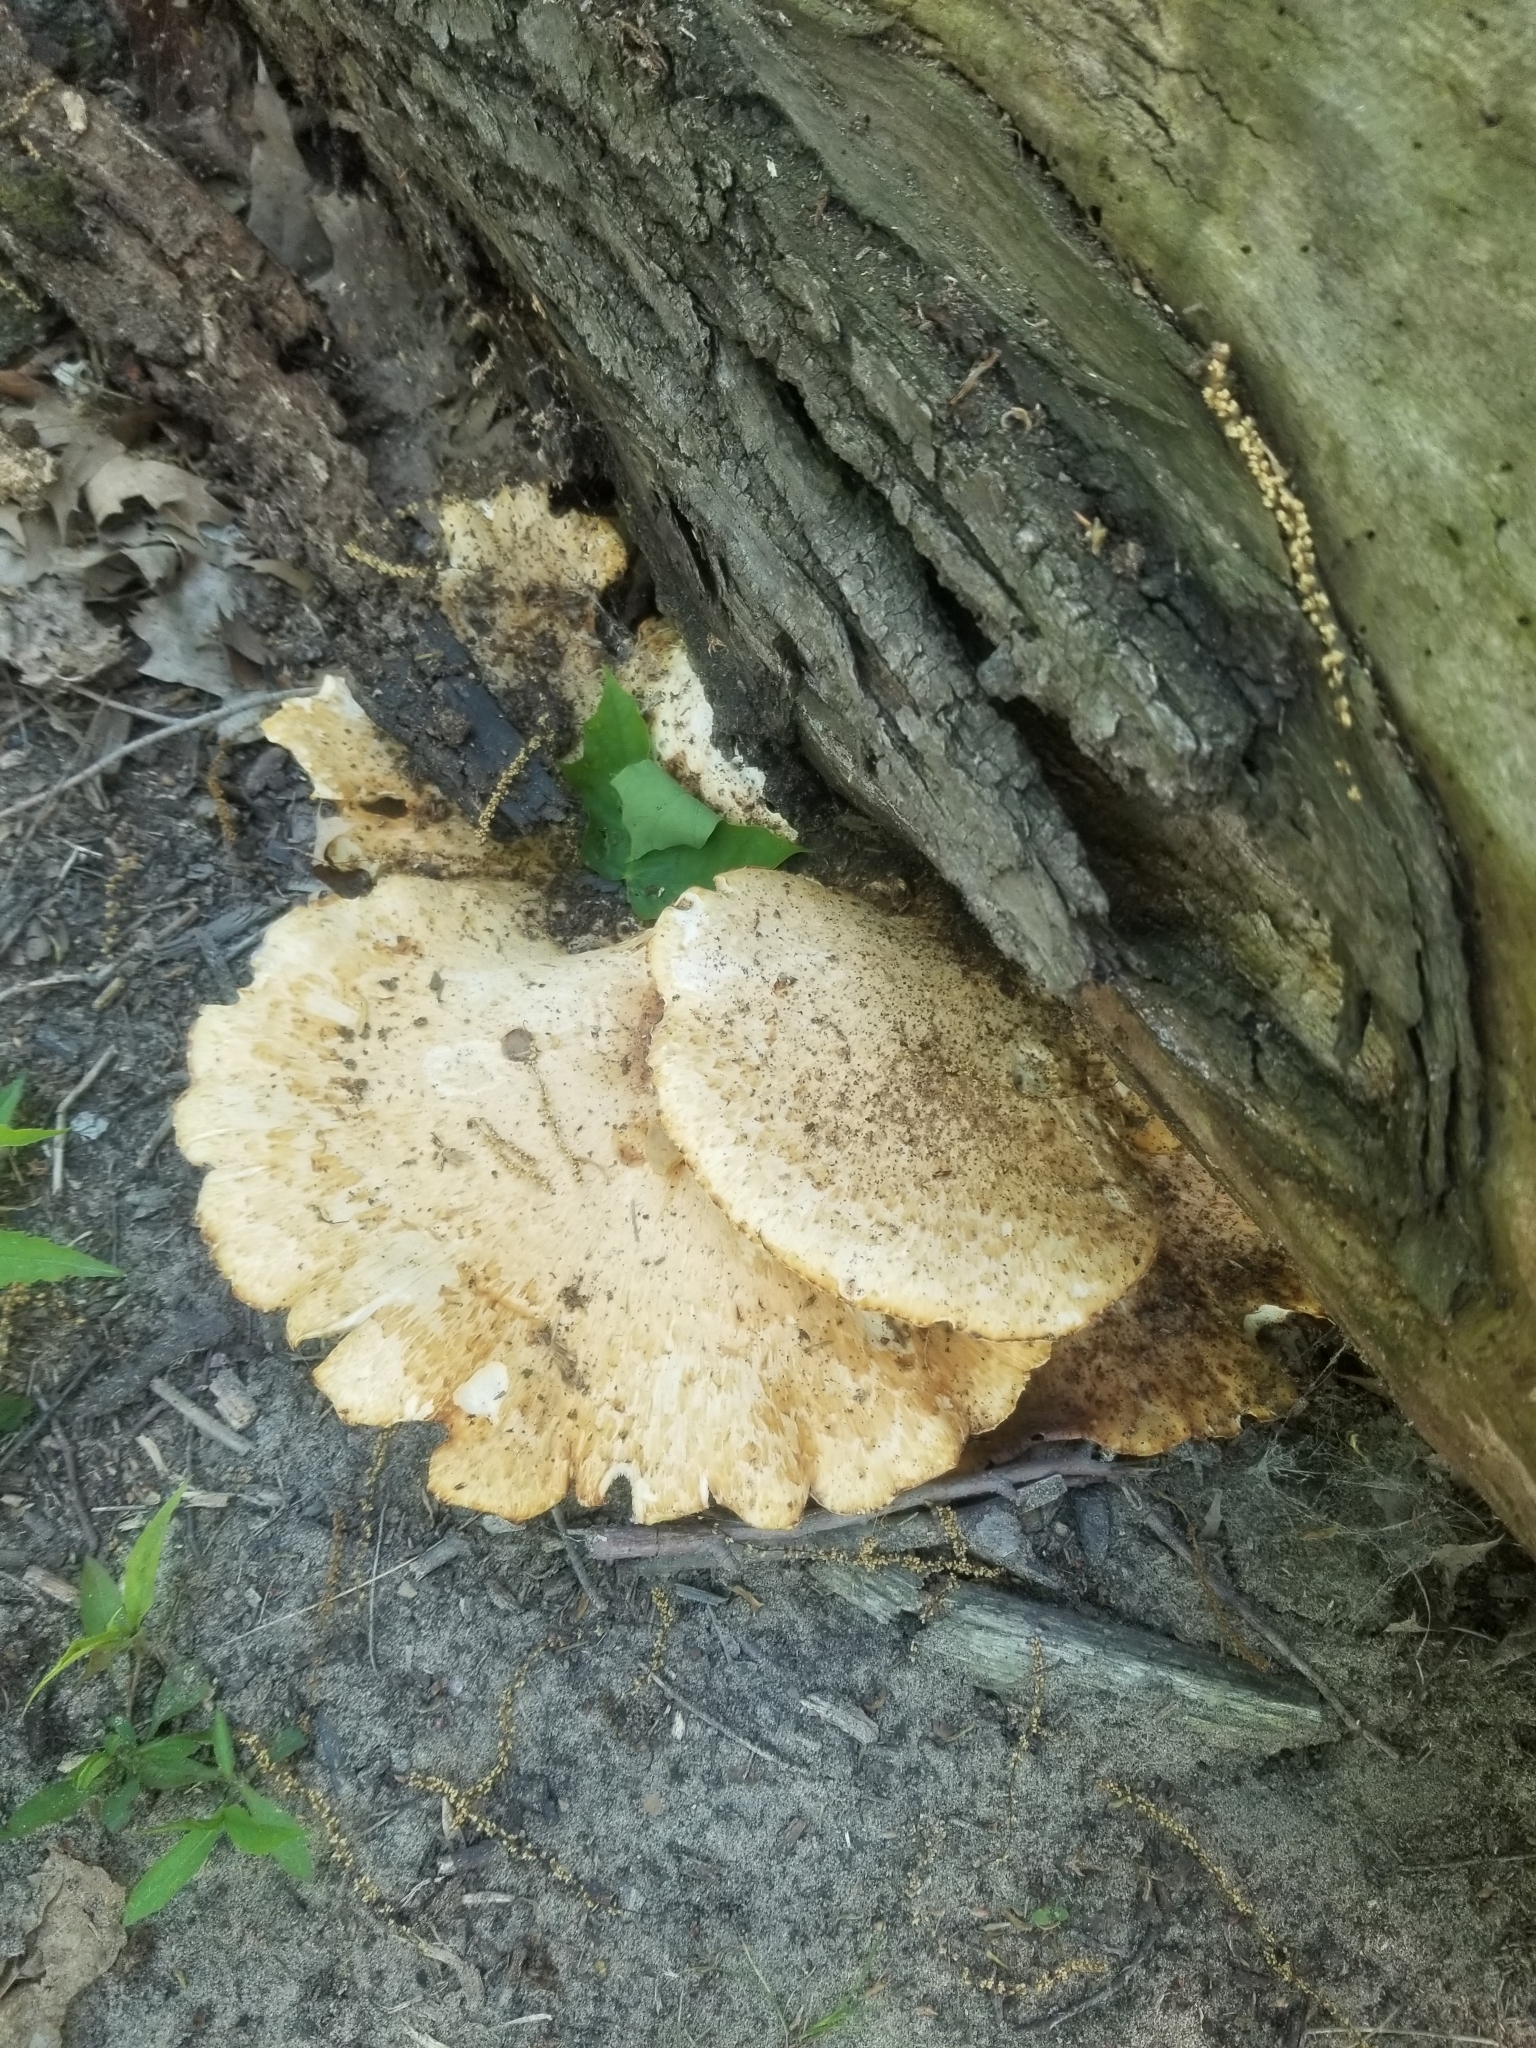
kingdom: Fungi
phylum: Basidiomycota
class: Agaricomycetes
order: Polyporales
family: Polyporaceae
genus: Cerioporus
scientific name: Cerioporus squamosus
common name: Dryad's saddle
